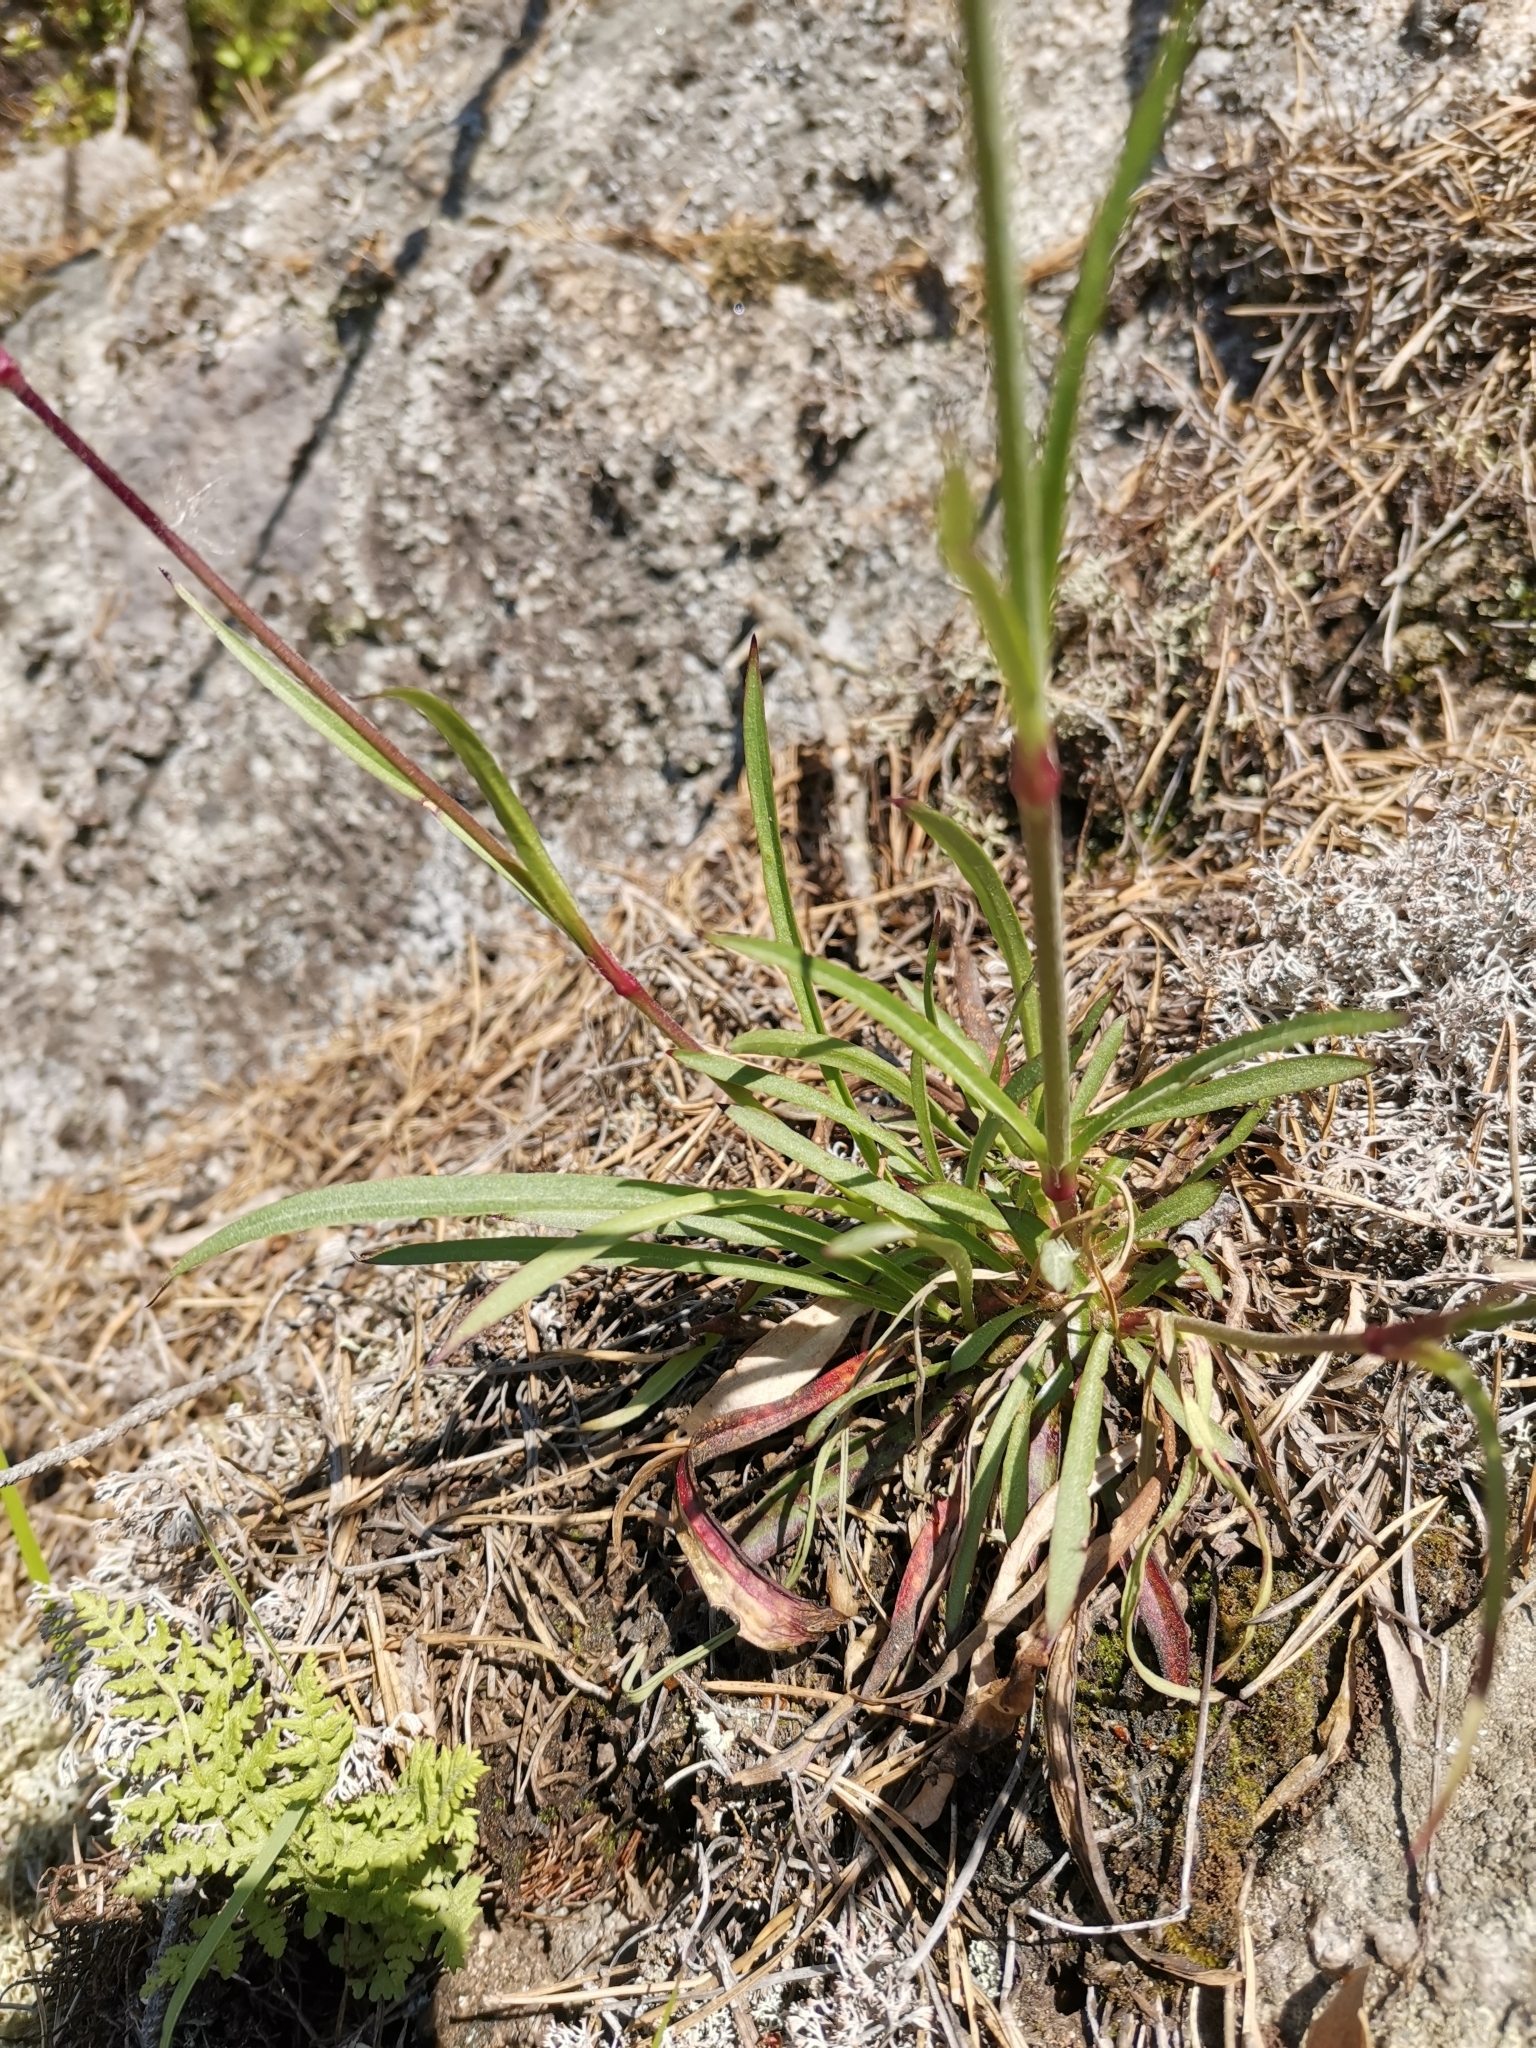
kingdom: Plantae
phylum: Tracheophyta
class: Magnoliopsida
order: Caryophyllales
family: Caryophyllaceae
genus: Viscaria
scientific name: Viscaria vulgaris
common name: Clammy campion
